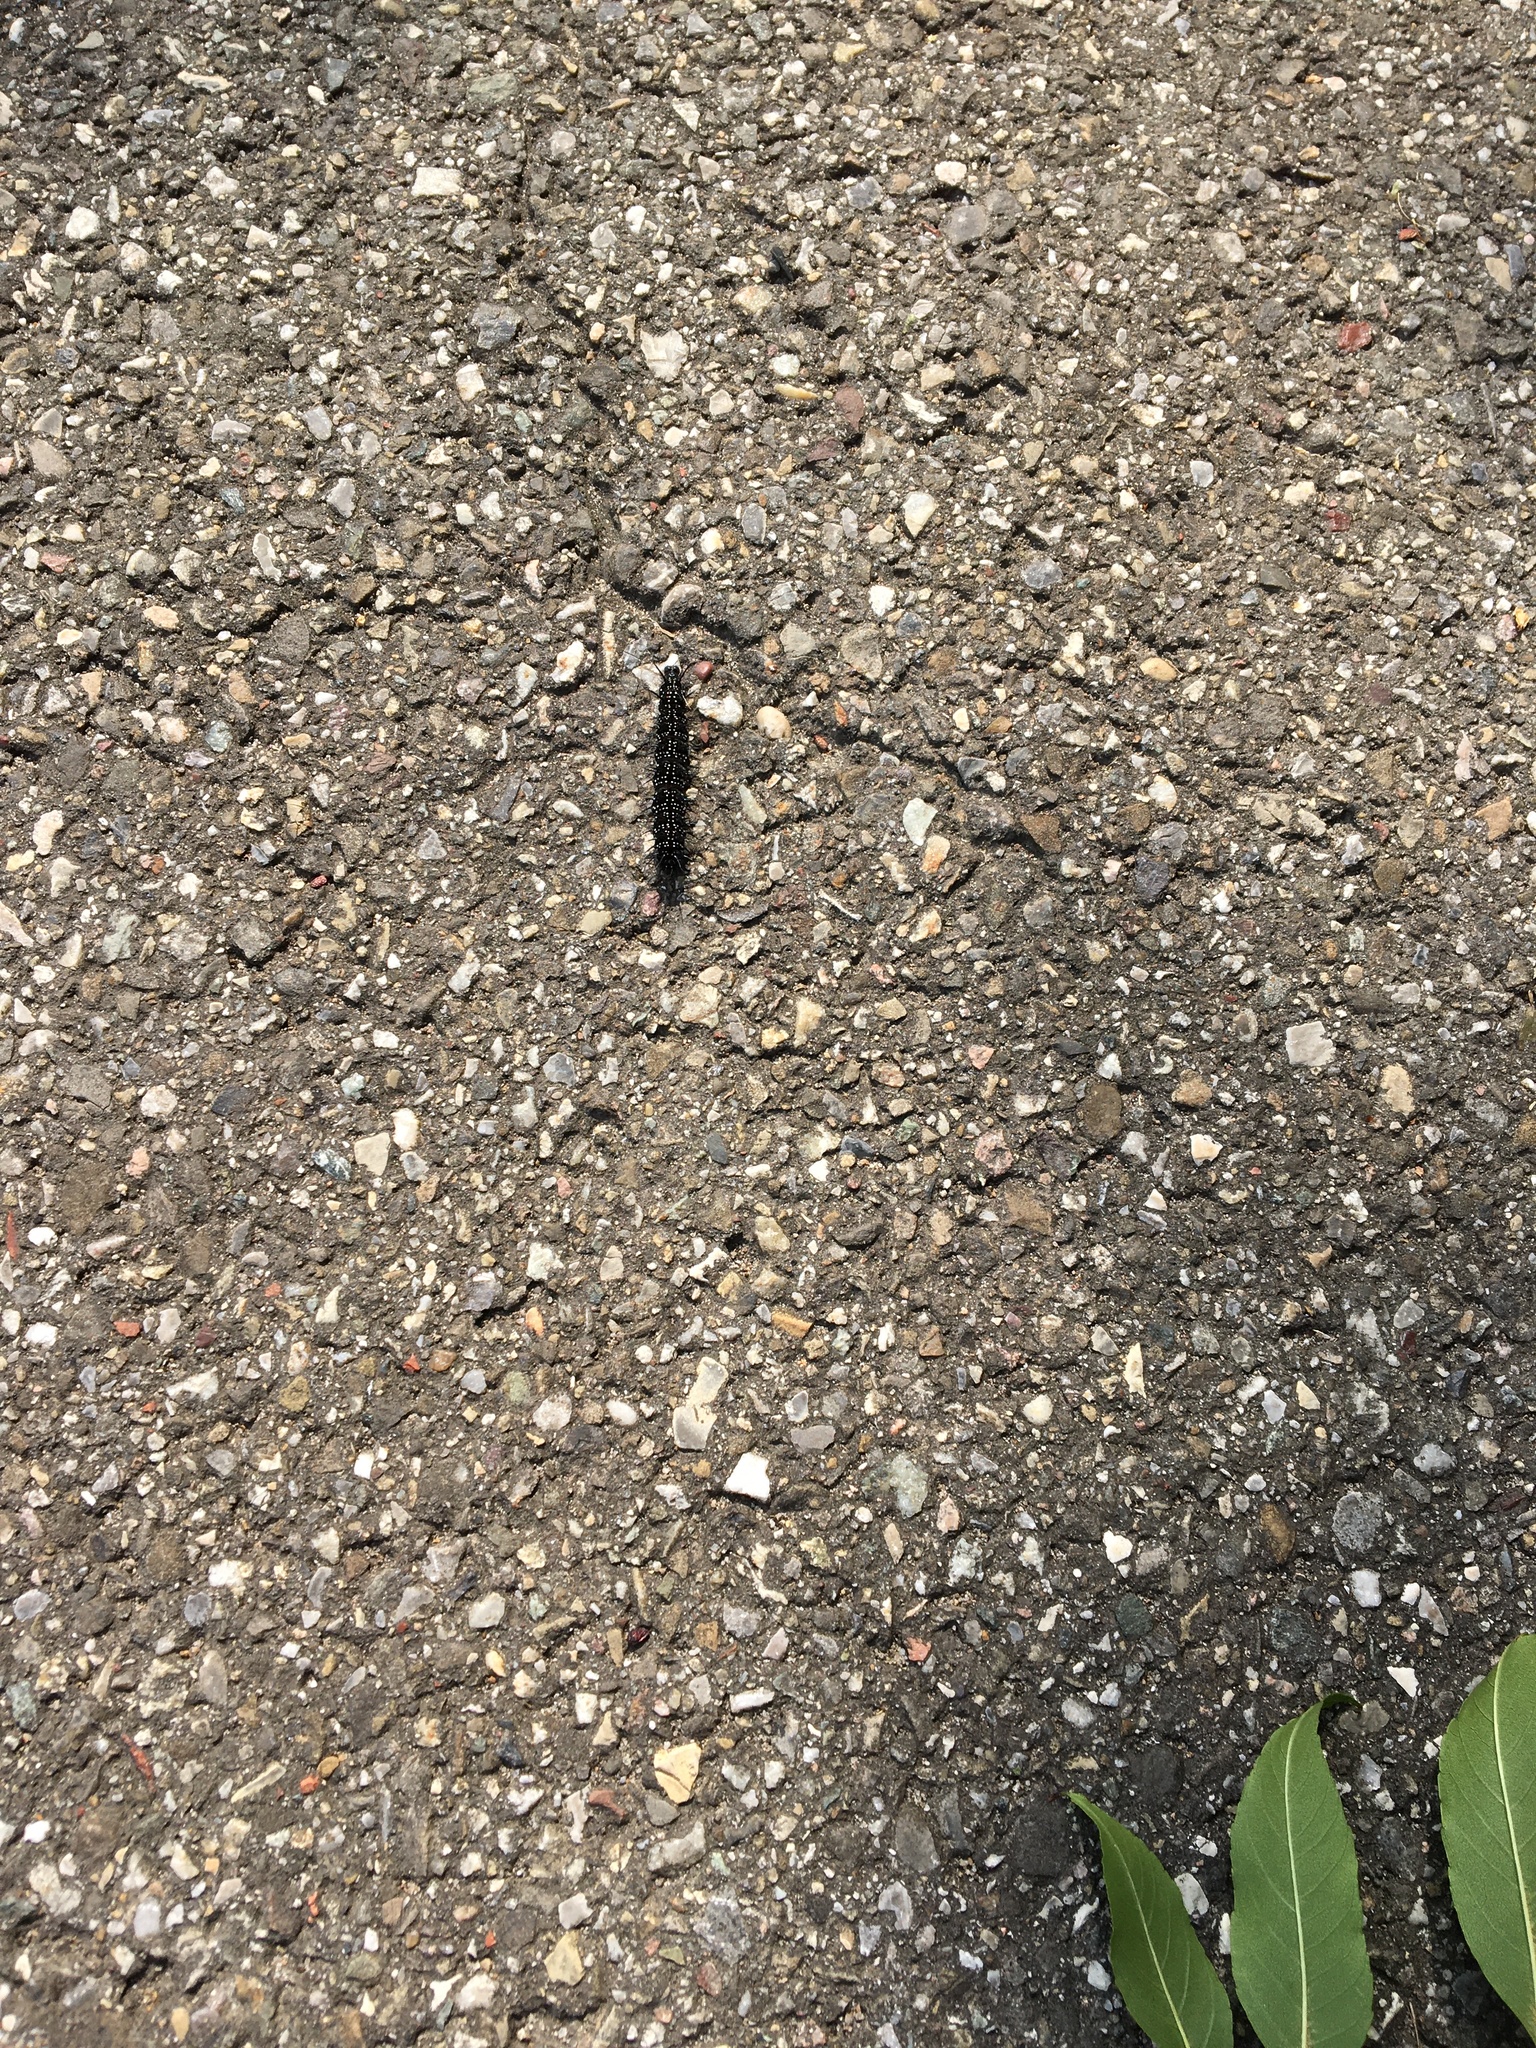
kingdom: Animalia
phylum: Arthropoda
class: Insecta
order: Lepidoptera
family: Nymphalidae
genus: Aglais
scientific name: Aglais io
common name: Peacock
